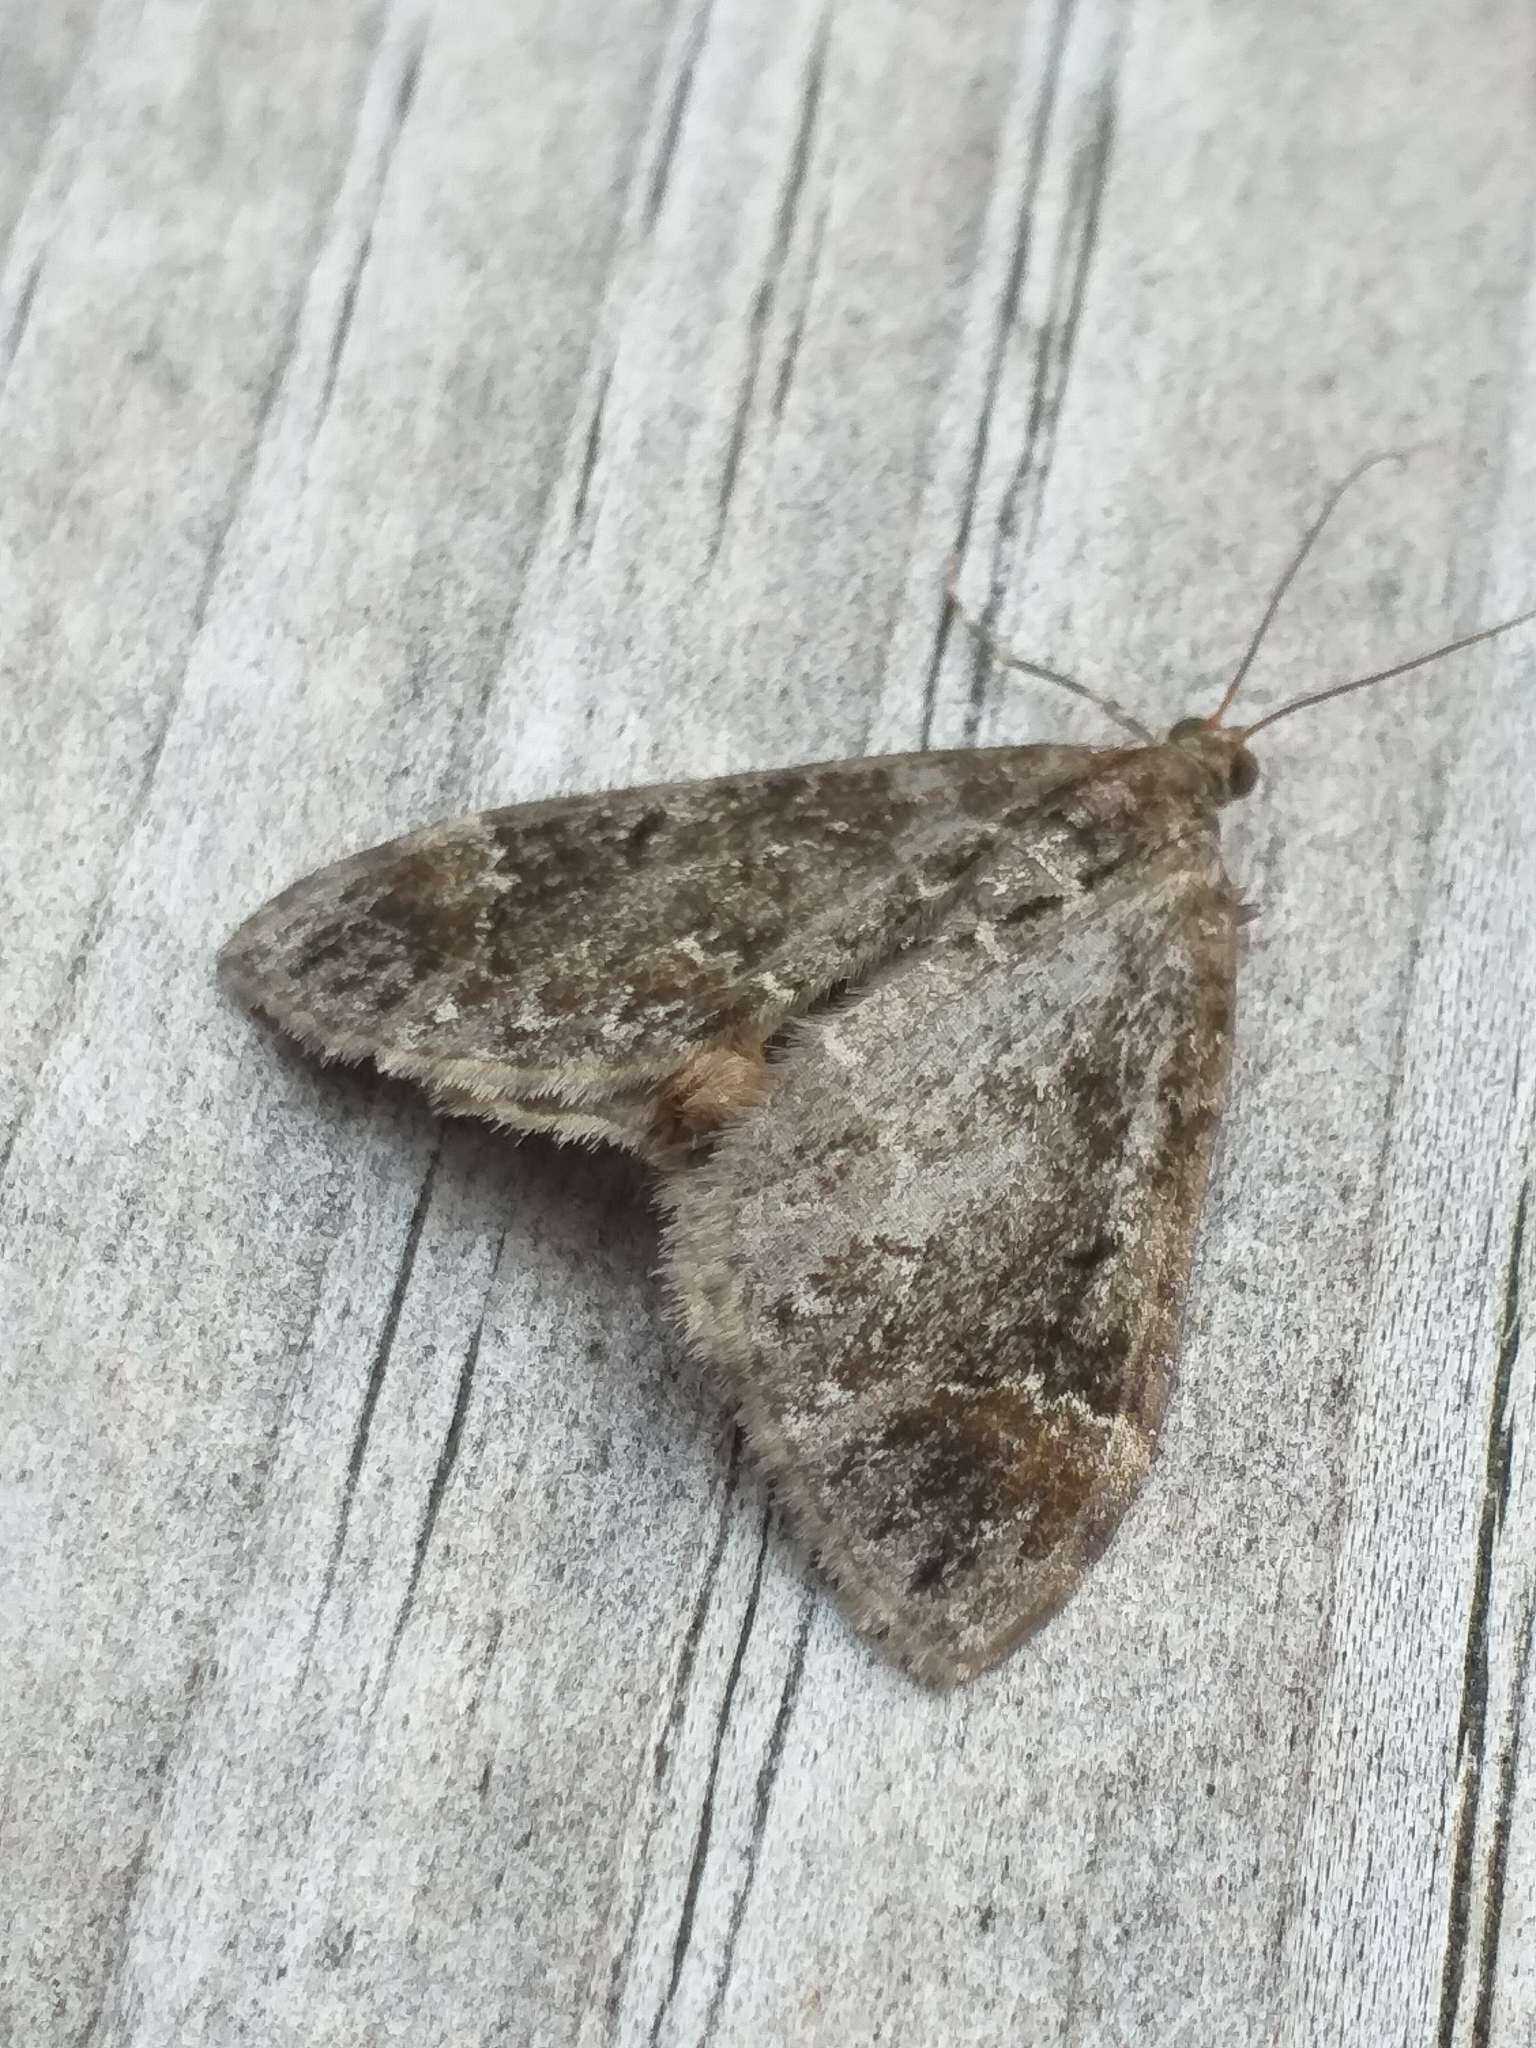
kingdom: Animalia
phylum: Arthropoda
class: Insecta
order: Lepidoptera
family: Geometridae
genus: Dysstroma
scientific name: Dysstroma truncata
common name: Common marbled carpet
